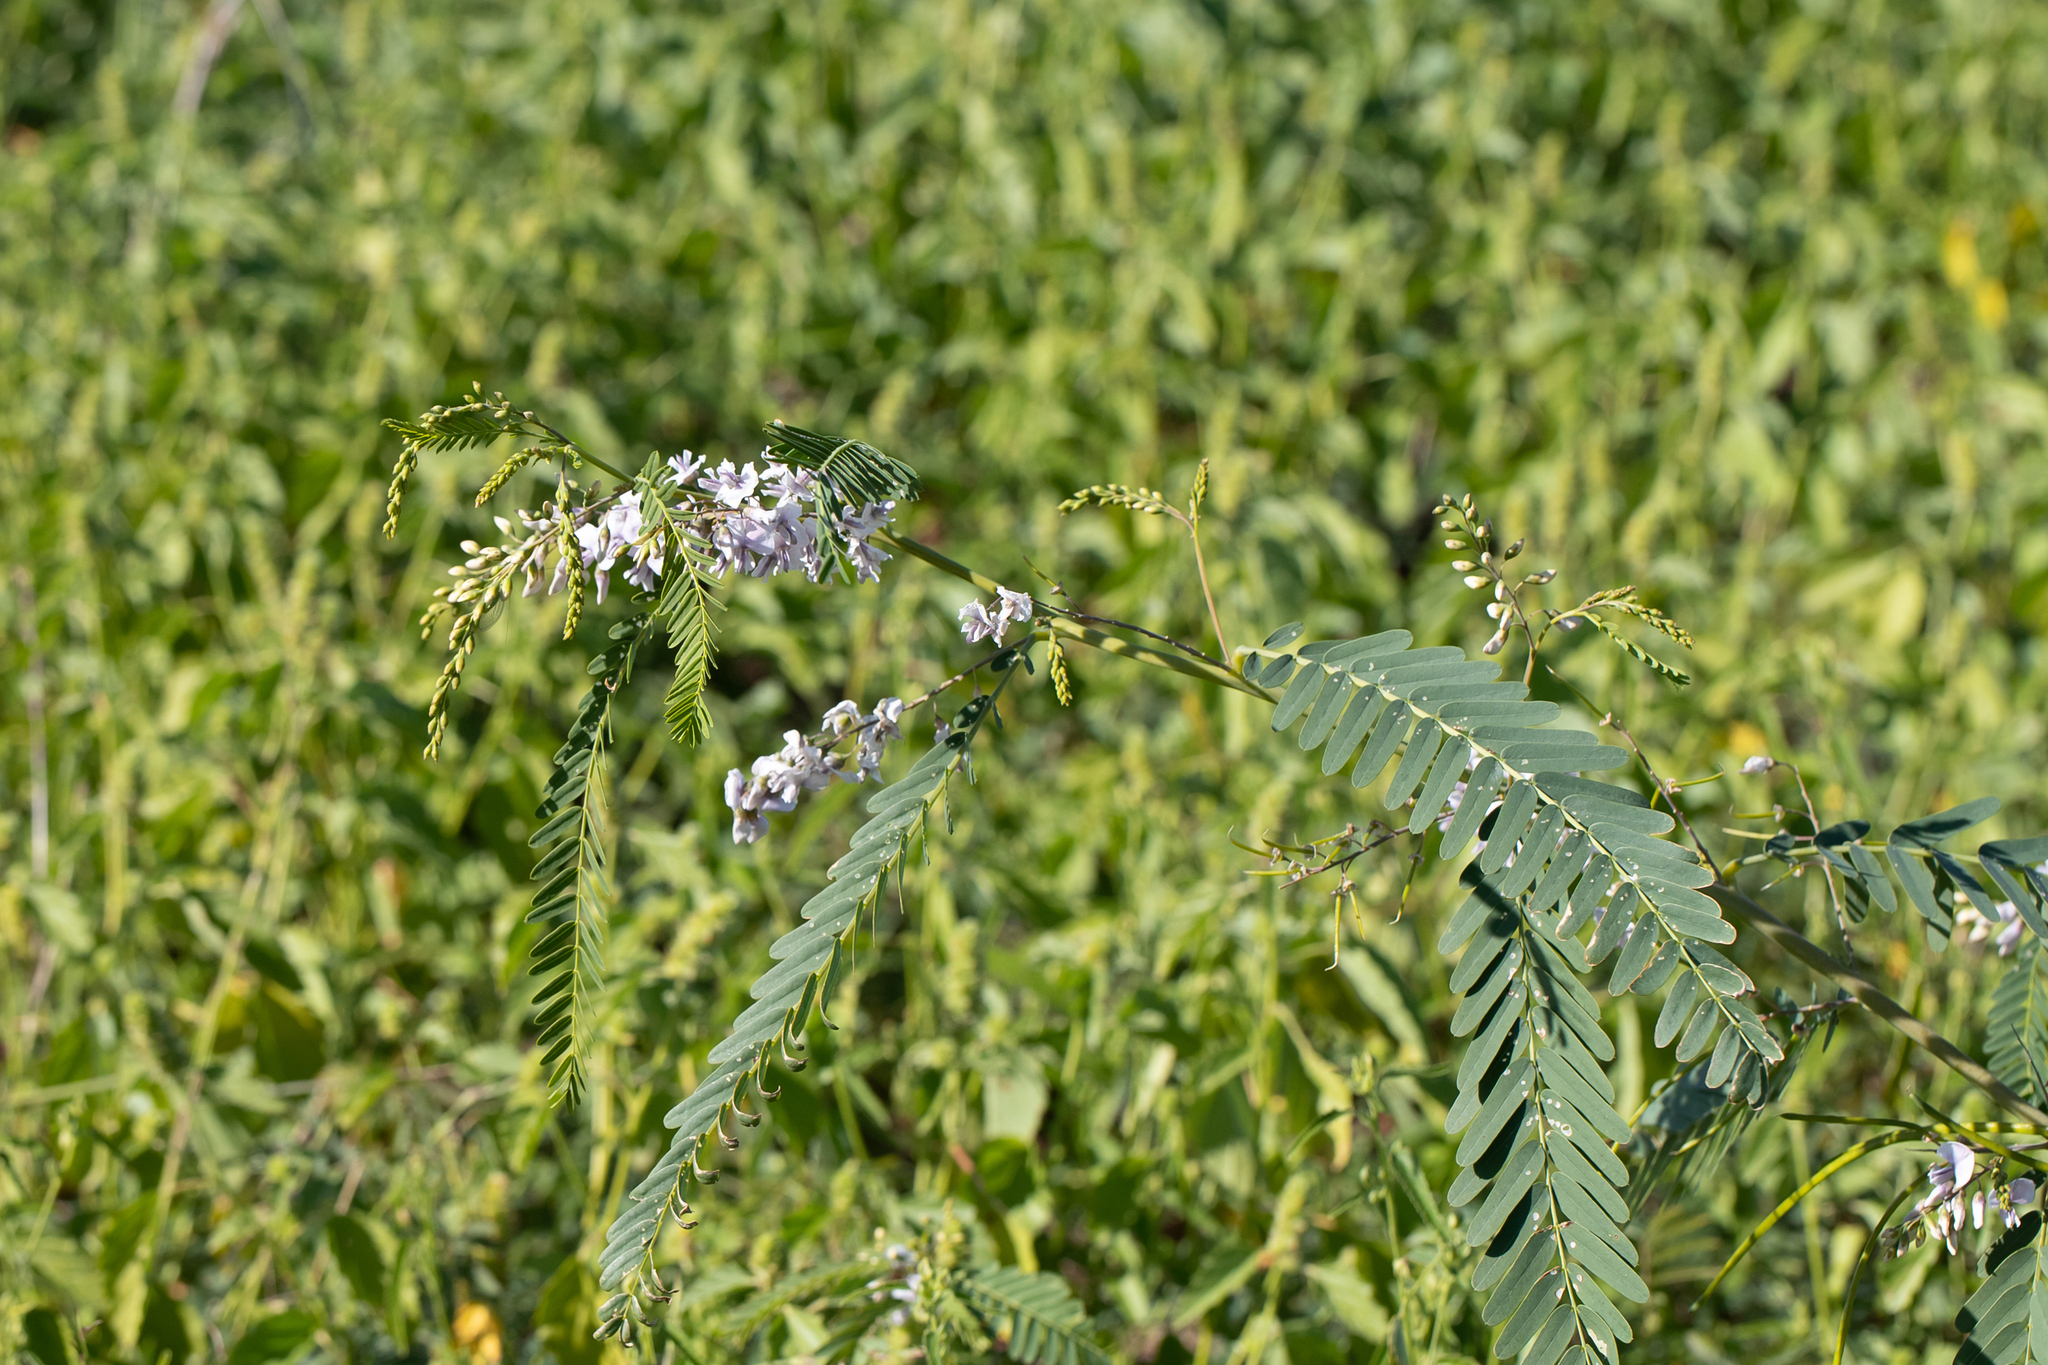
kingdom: Plantae
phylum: Tracheophyta
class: Magnoliopsida
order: Fabales
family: Fabaceae
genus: Sesbania
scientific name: Sesbania brachycarpa
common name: Sesbania-pea
